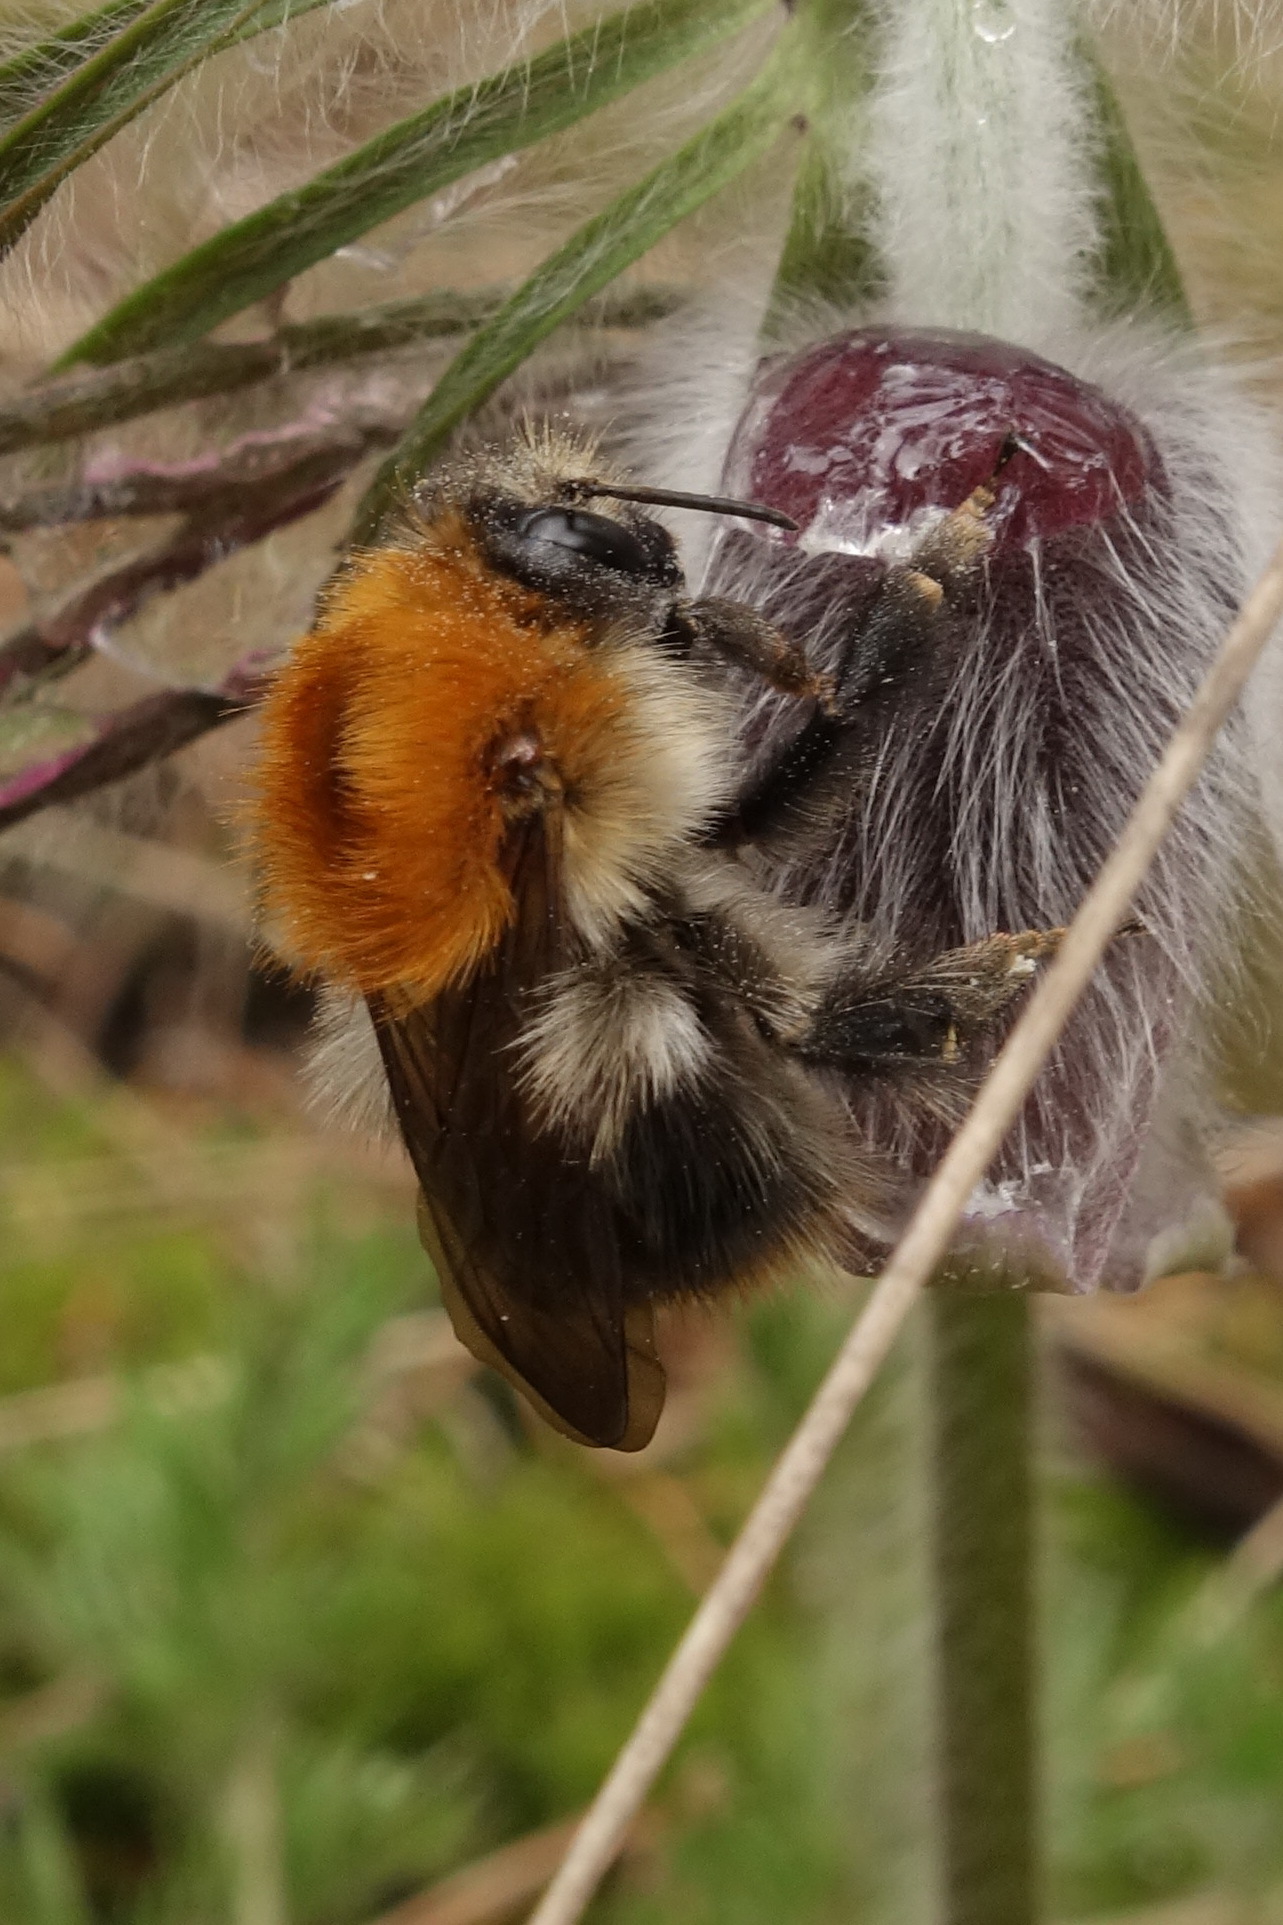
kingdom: Animalia
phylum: Arthropoda
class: Insecta
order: Hymenoptera
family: Apidae
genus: Bombus
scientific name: Bombus pascuorum
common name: Common carder bee
